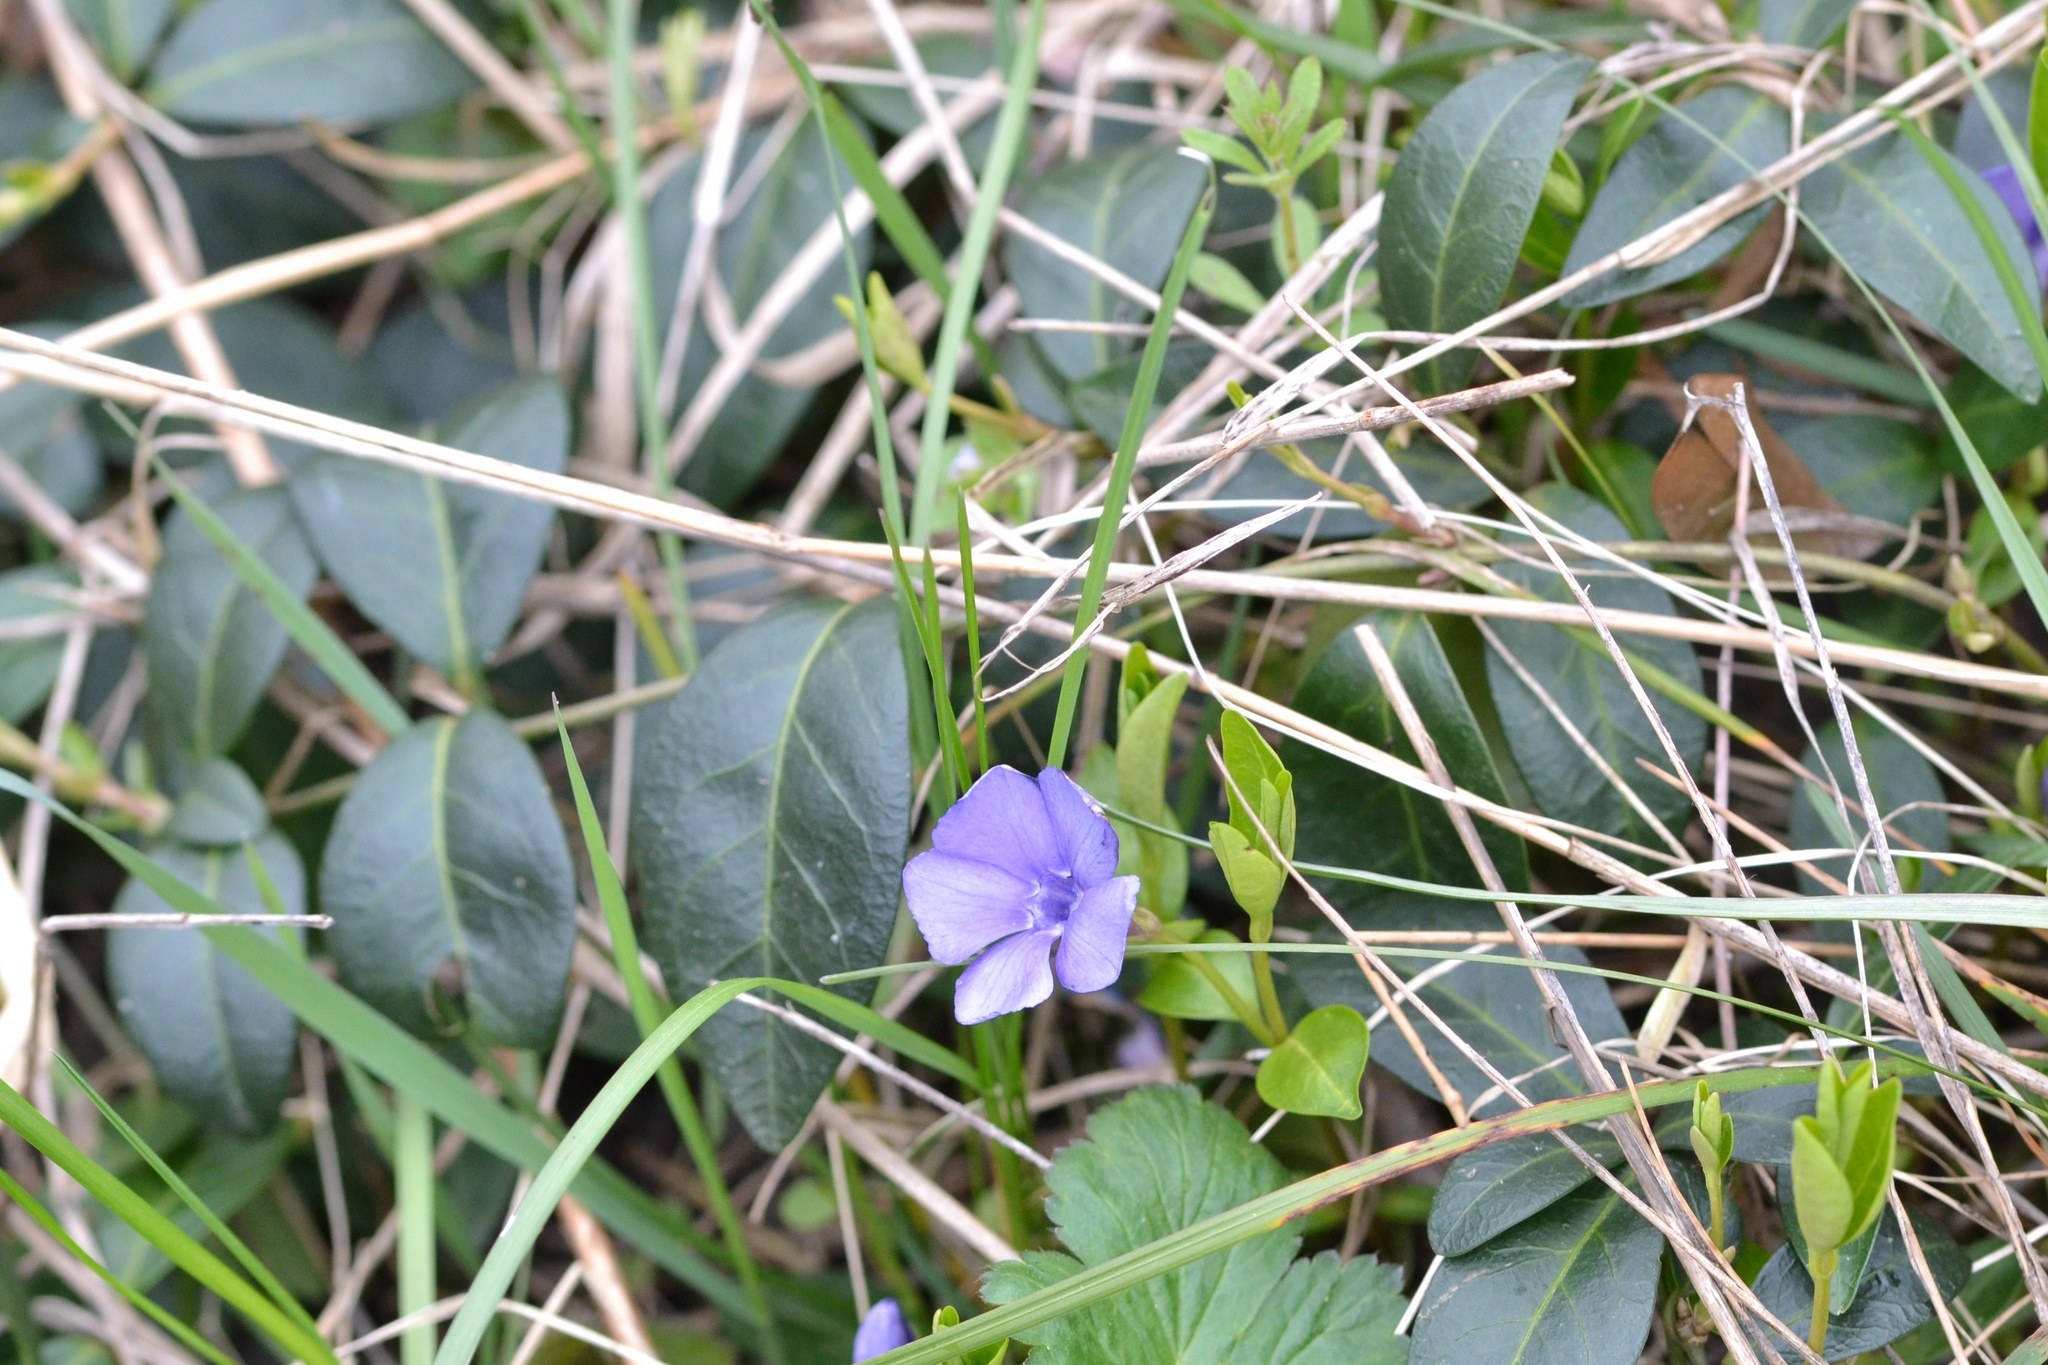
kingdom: Plantae
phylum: Tracheophyta
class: Magnoliopsida
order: Gentianales
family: Apocynaceae
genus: Vinca
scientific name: Vinca minor
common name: Lesser periwinkle
